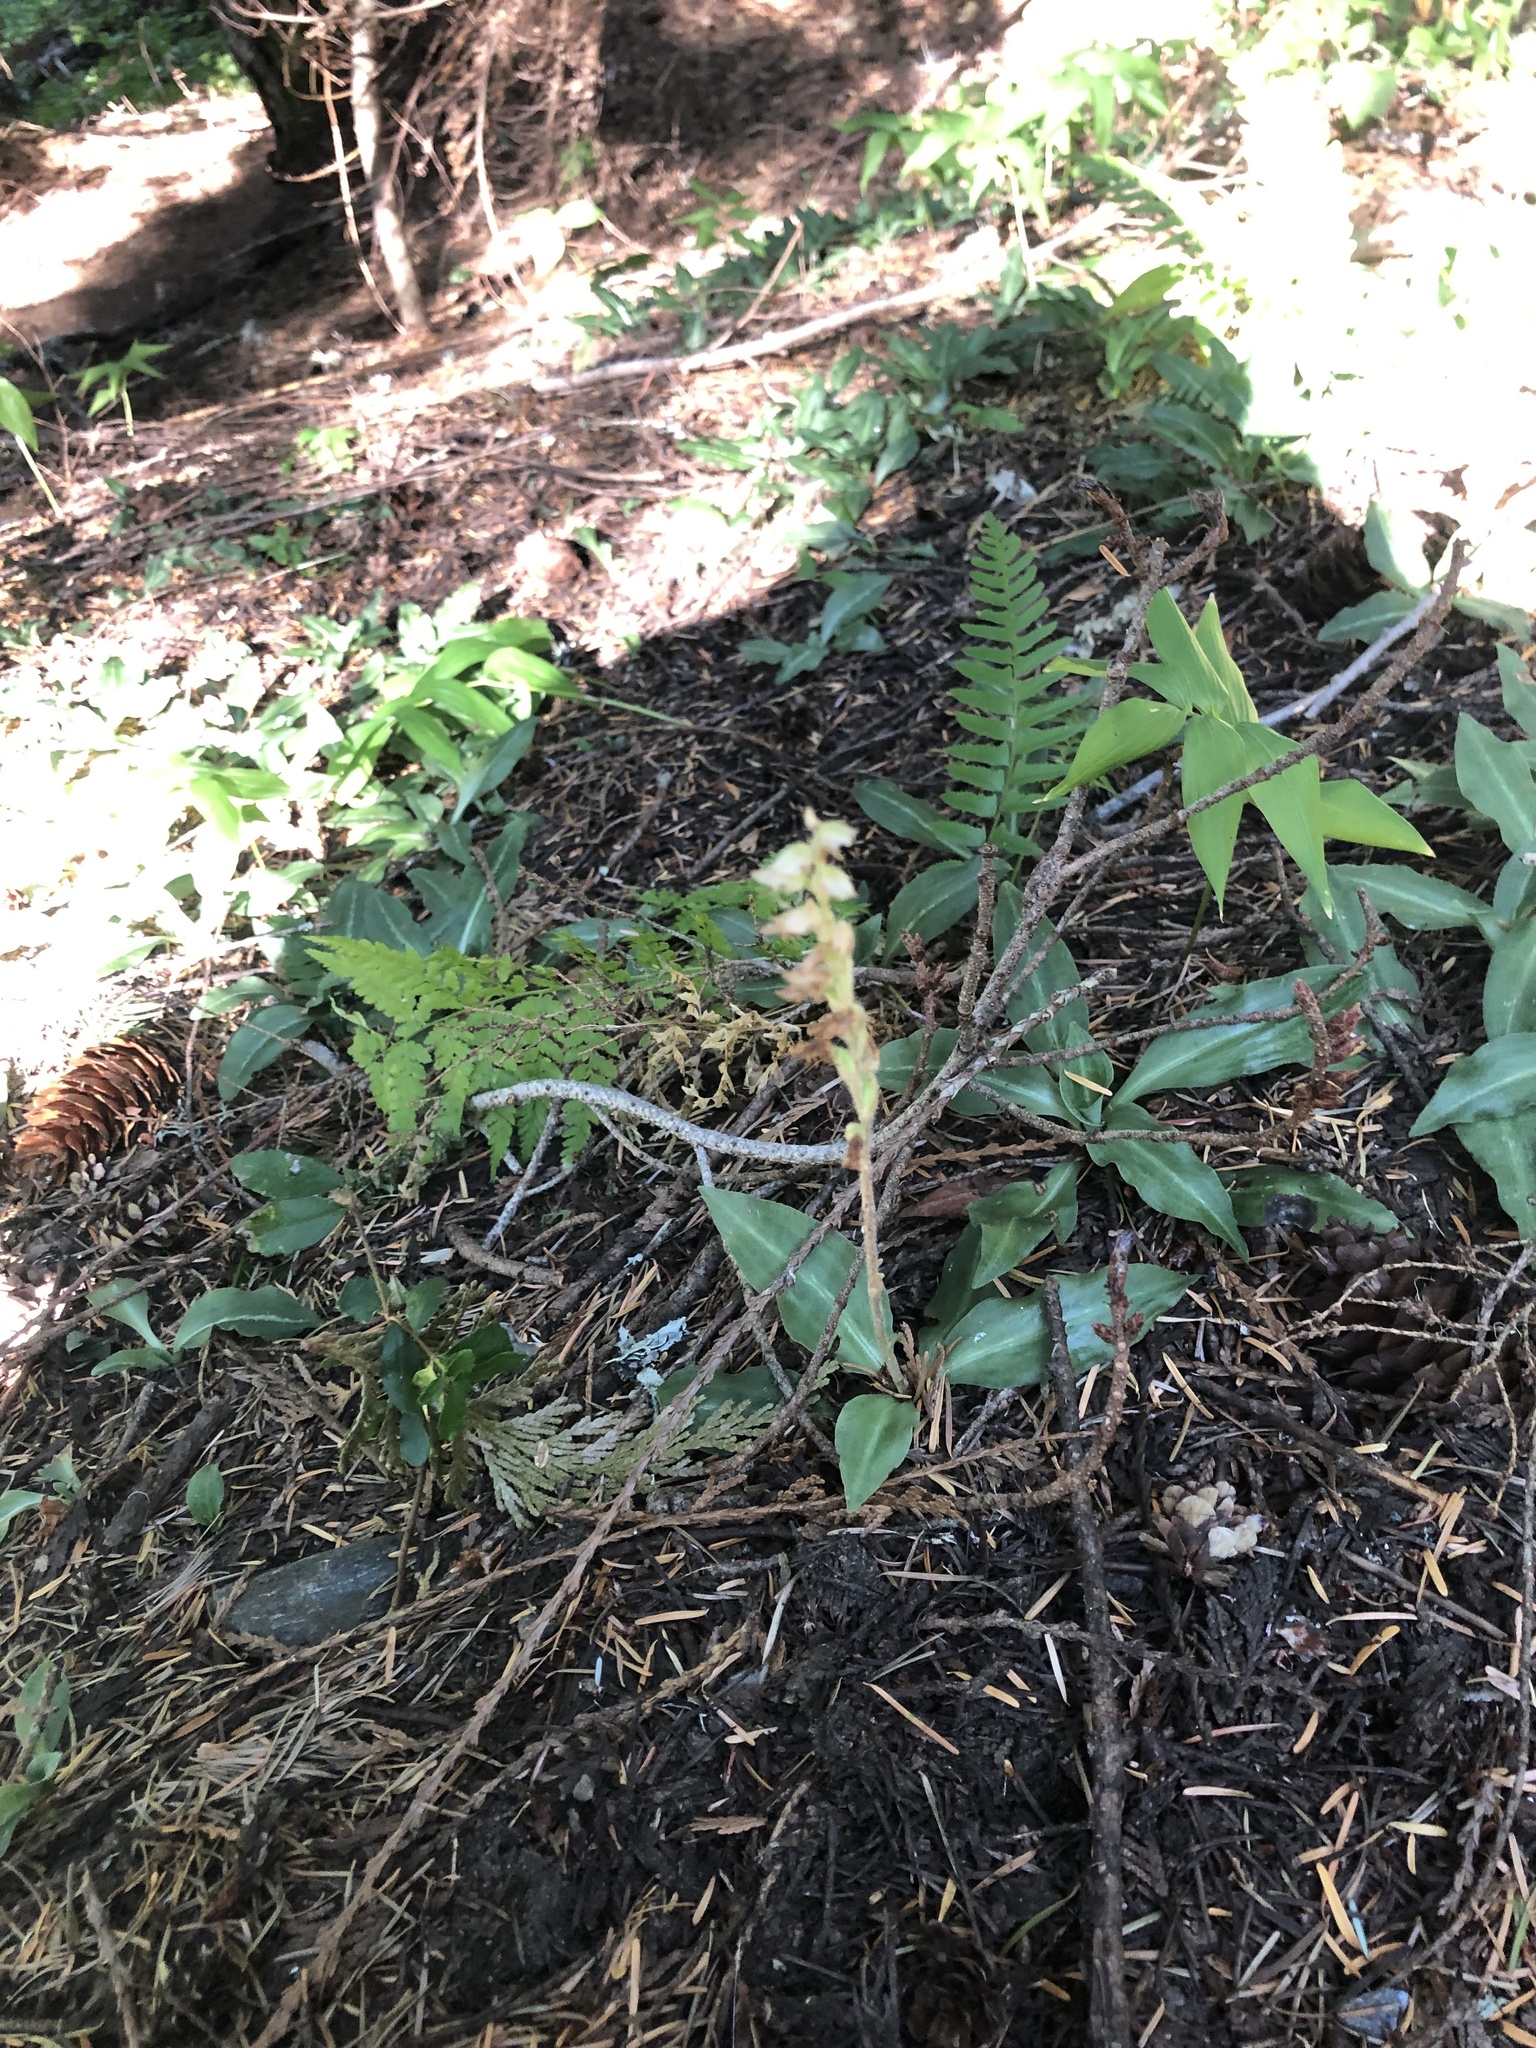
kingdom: Plantae
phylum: Tracheophyta
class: Liliopsida
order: Asparagales
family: Orchidaceae
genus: Goodyera
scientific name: Goodyera oblongifolia
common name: Giant rattlesnake-plantain
